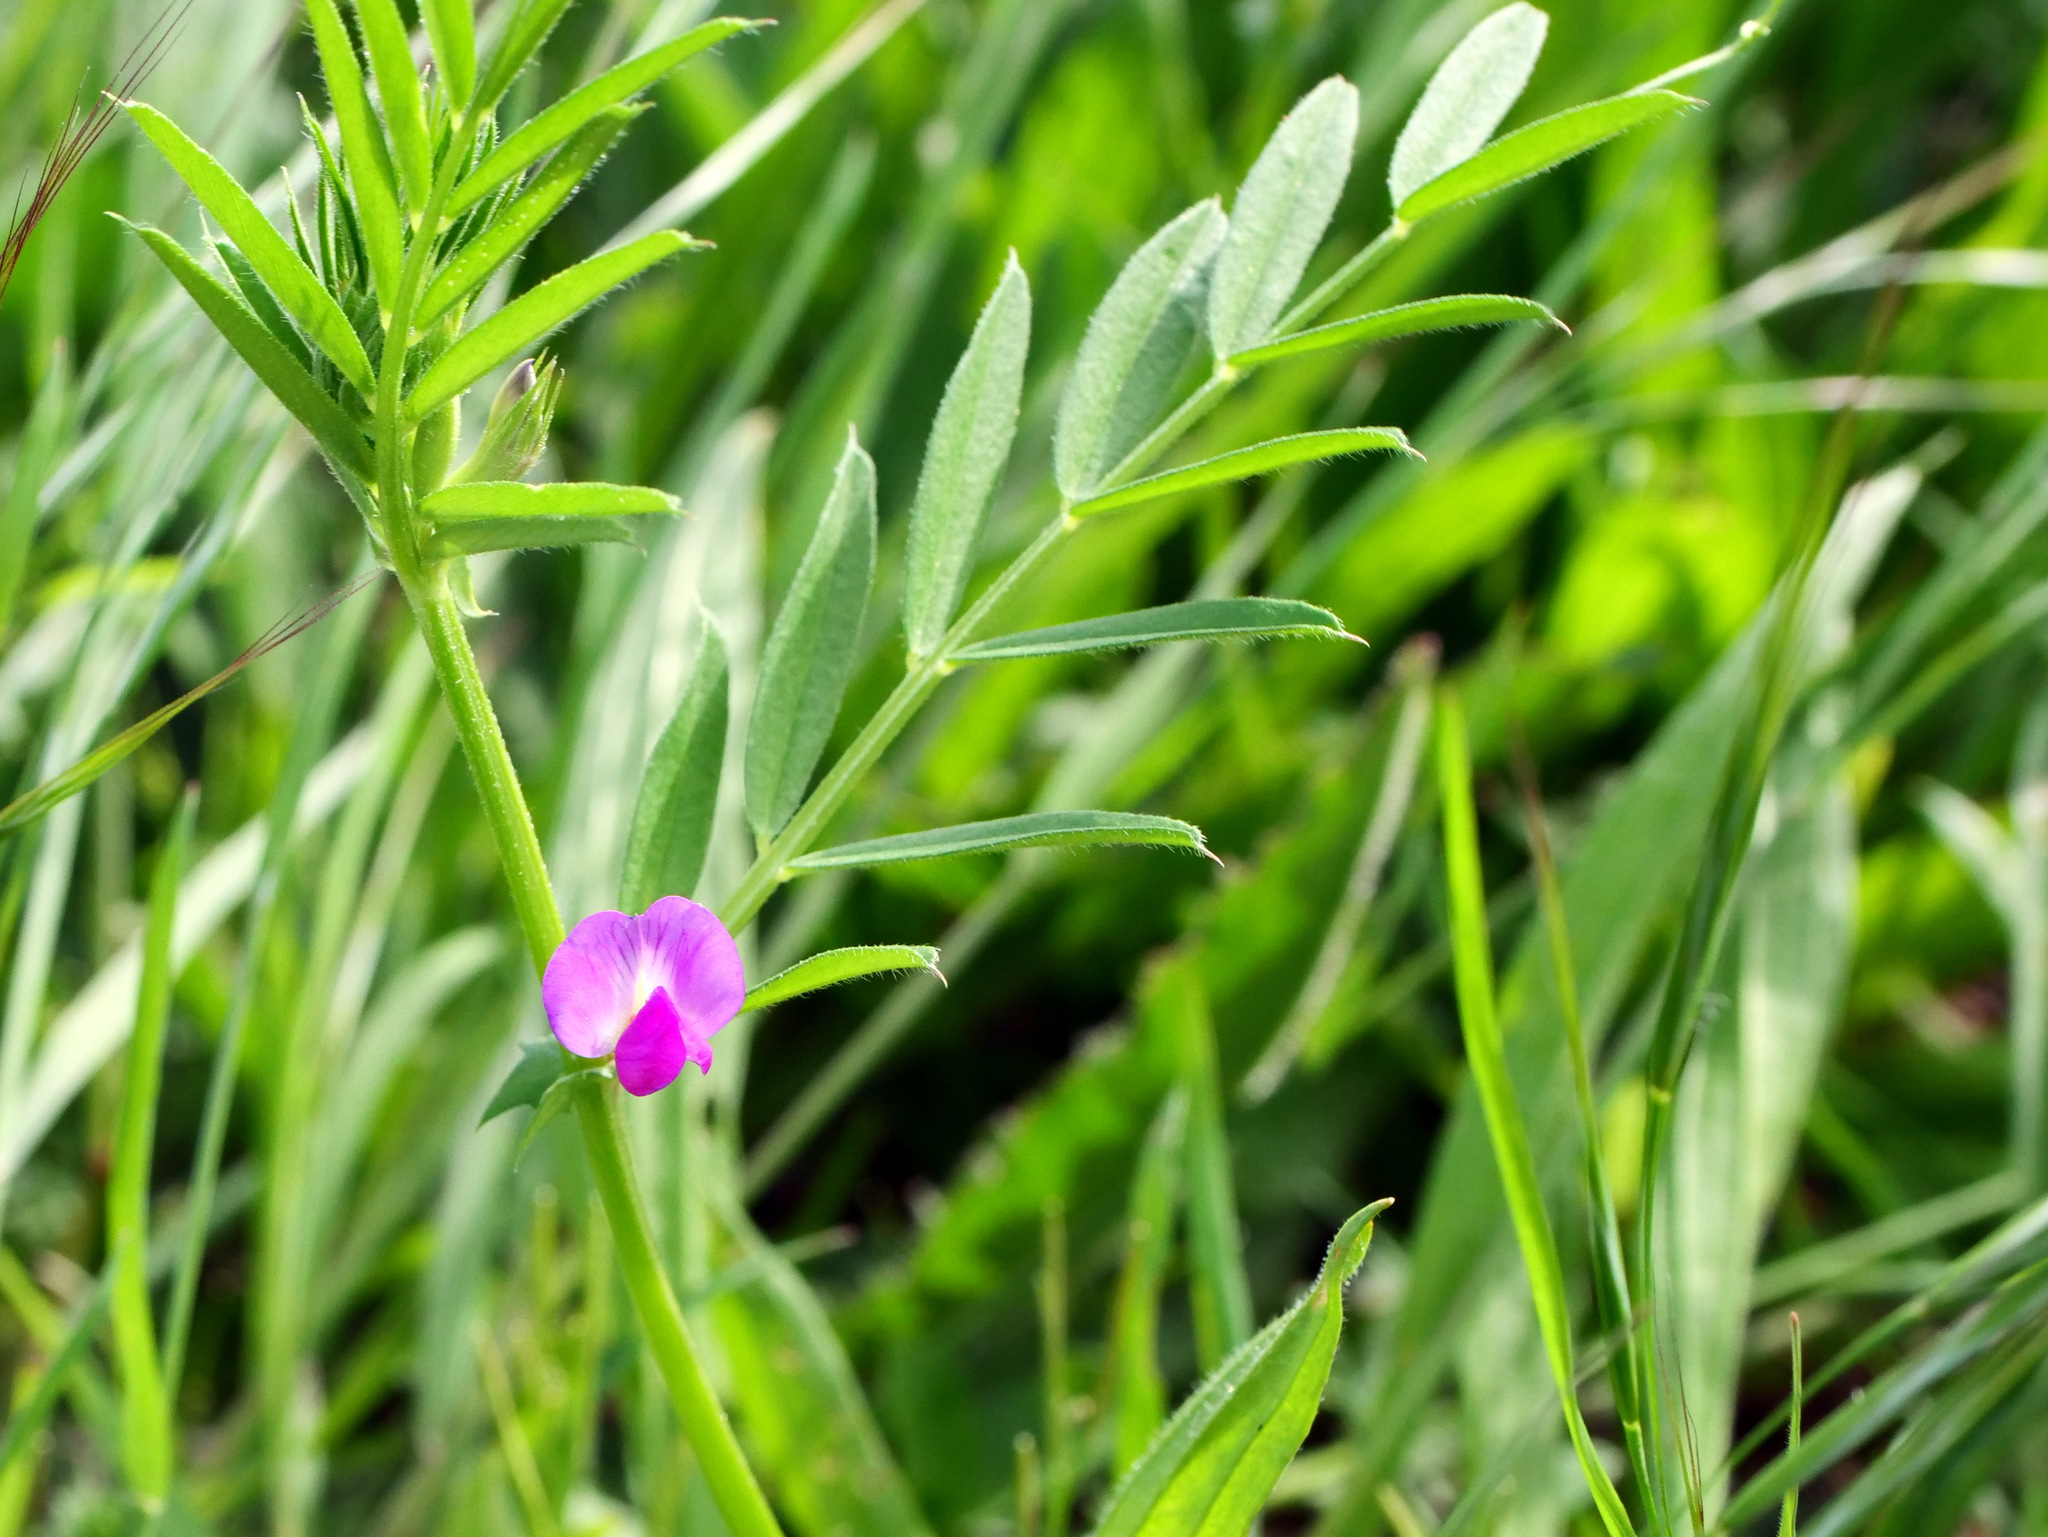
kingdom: Plantae
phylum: Tracheophyta
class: Magnoliopsida
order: Fabales
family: Fabaceae
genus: Vicia
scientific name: Vicia sativa
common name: Garden vetch
